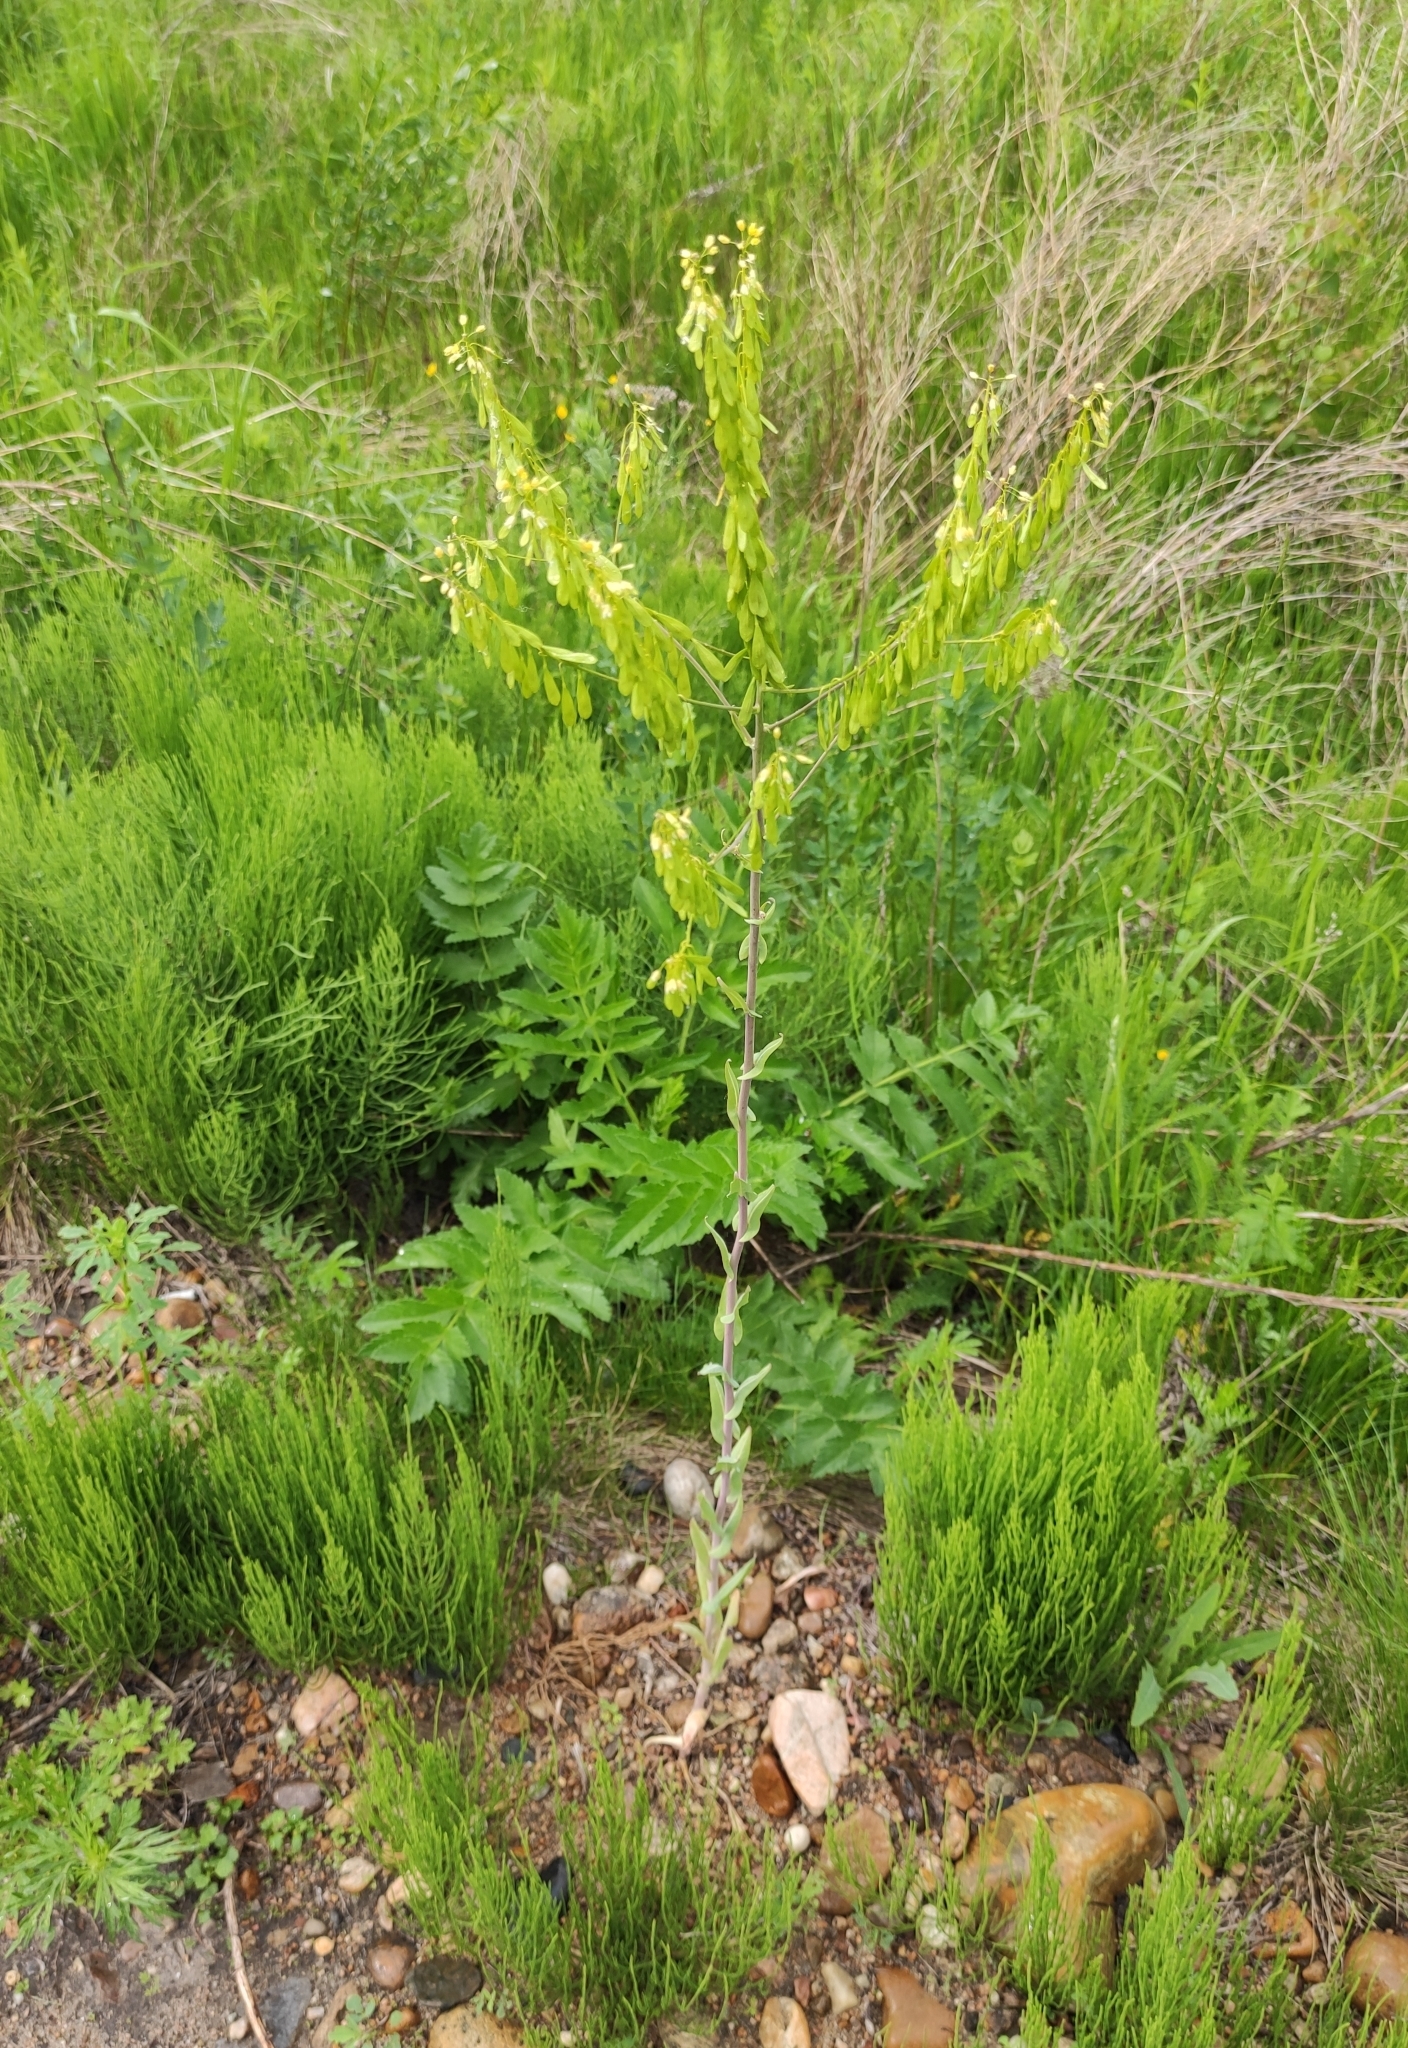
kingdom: Plantae
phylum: Tracheophyta
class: Magnoliopsida
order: Brassicales
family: Brassicaceae
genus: Isatis
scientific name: Isatis tinctoria
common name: Woad
